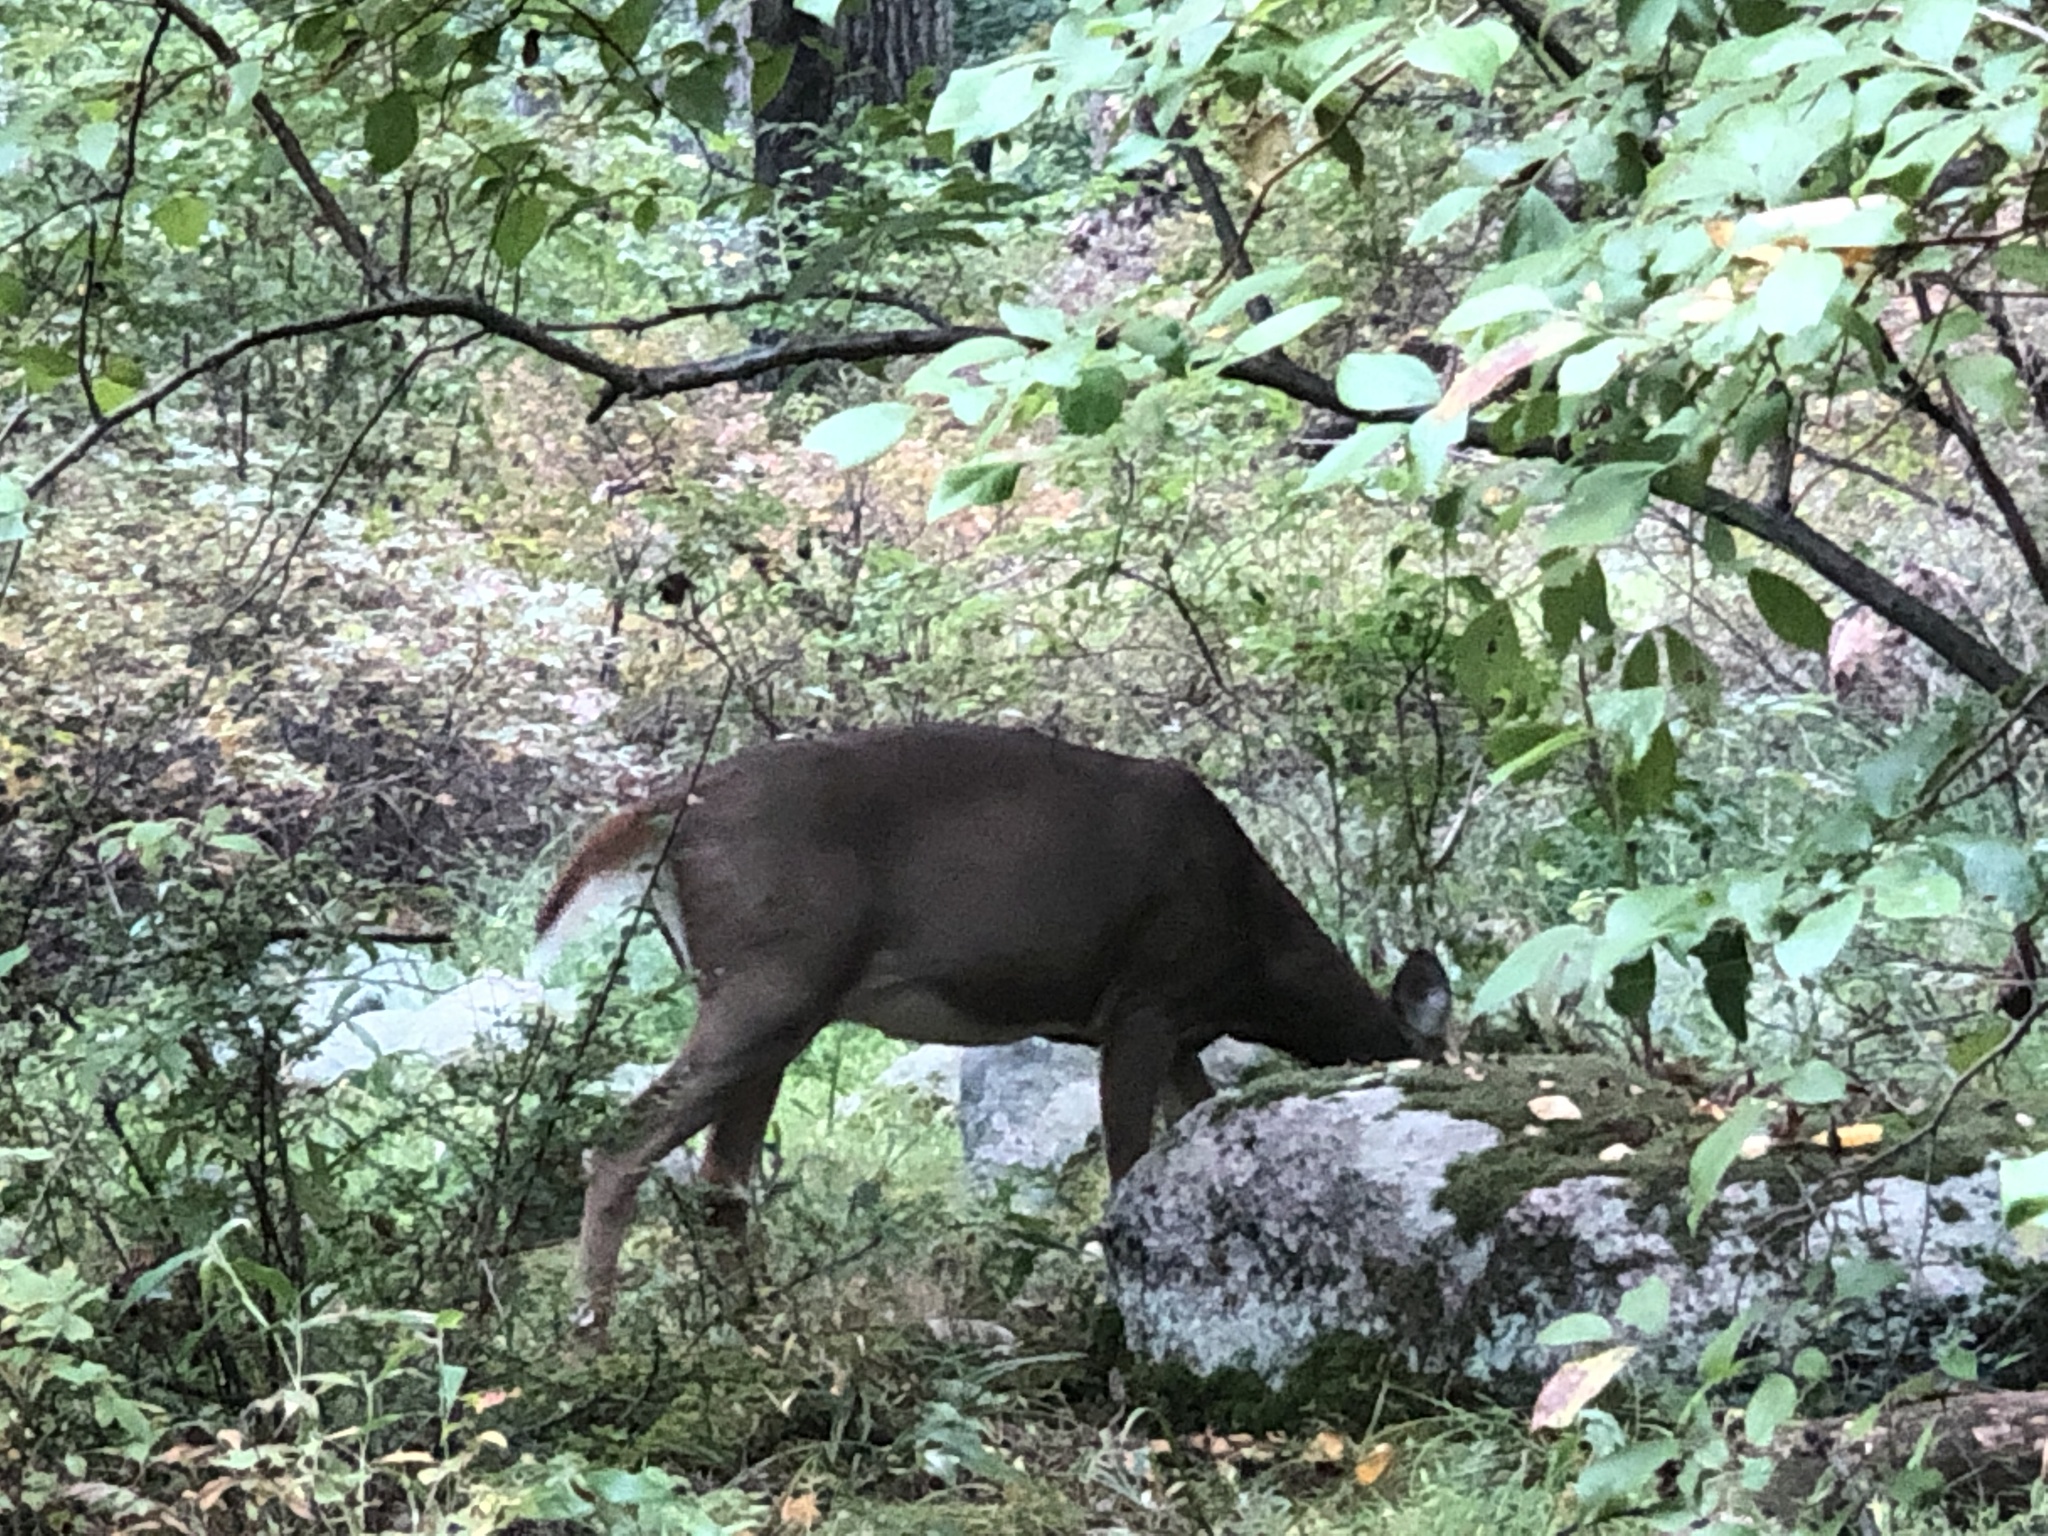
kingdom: Animalia
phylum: Chordata
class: Mammalia
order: Artiodactyla
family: Cervidae
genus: Odocoileus
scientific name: Odocoileus virginianus
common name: White-tailed deer
